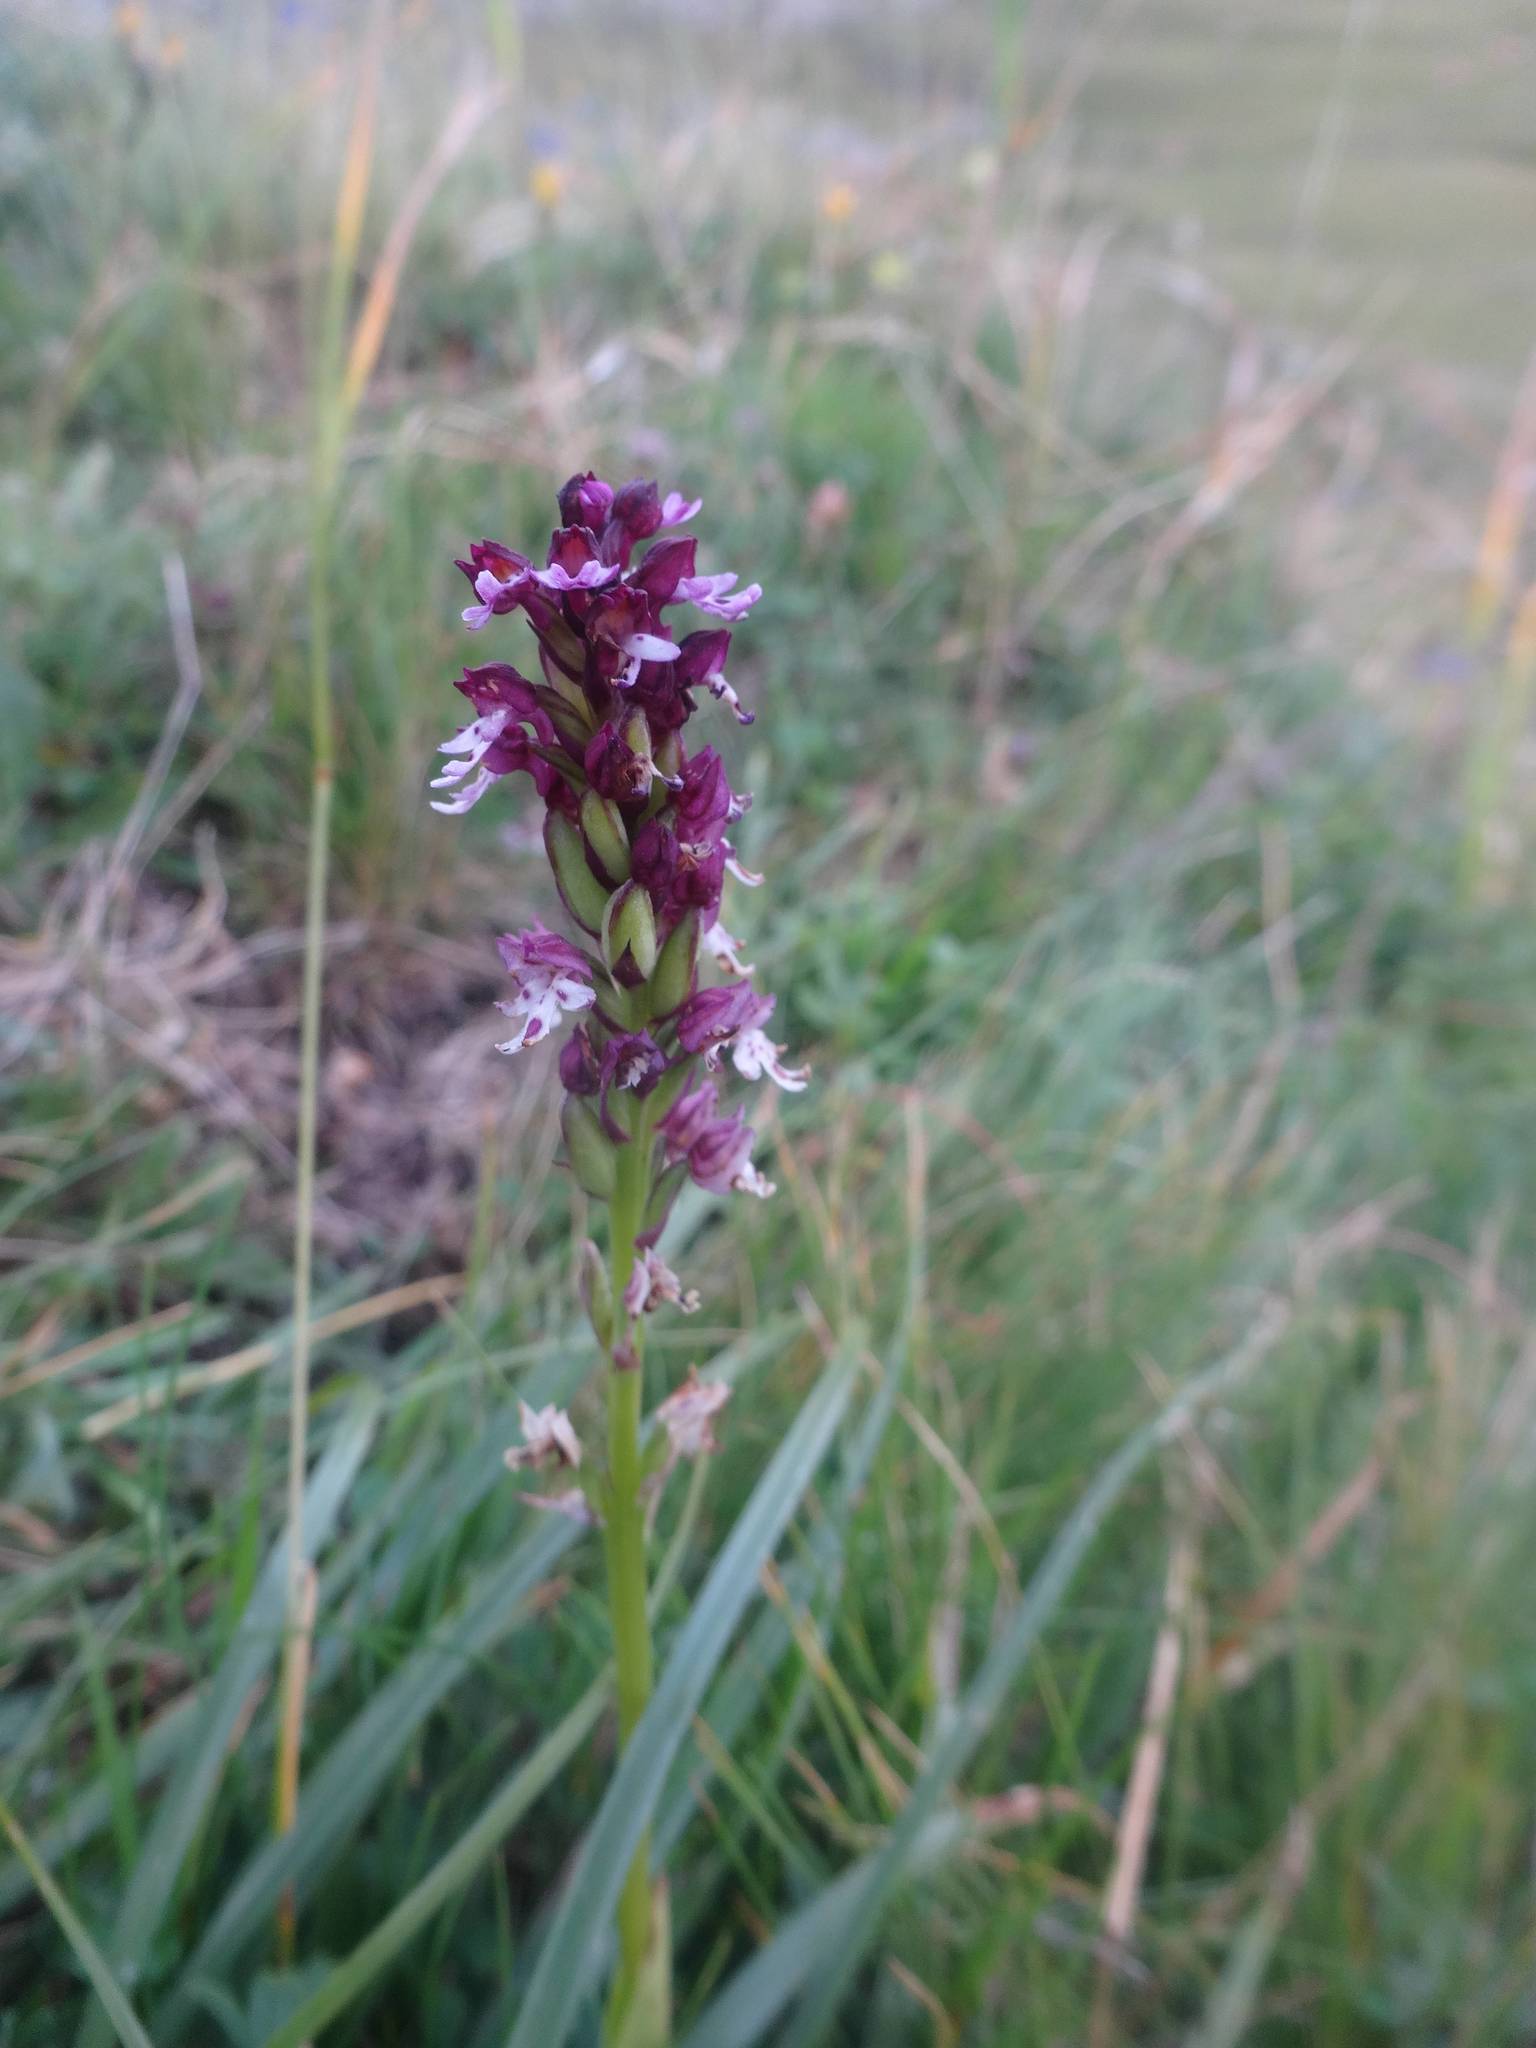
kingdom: Plantae
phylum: Tracheophyta
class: Liliopsida
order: Asparagales
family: Orchidaceae
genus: Neotinea
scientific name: Neotinea ustulata
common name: Burnt orchid
